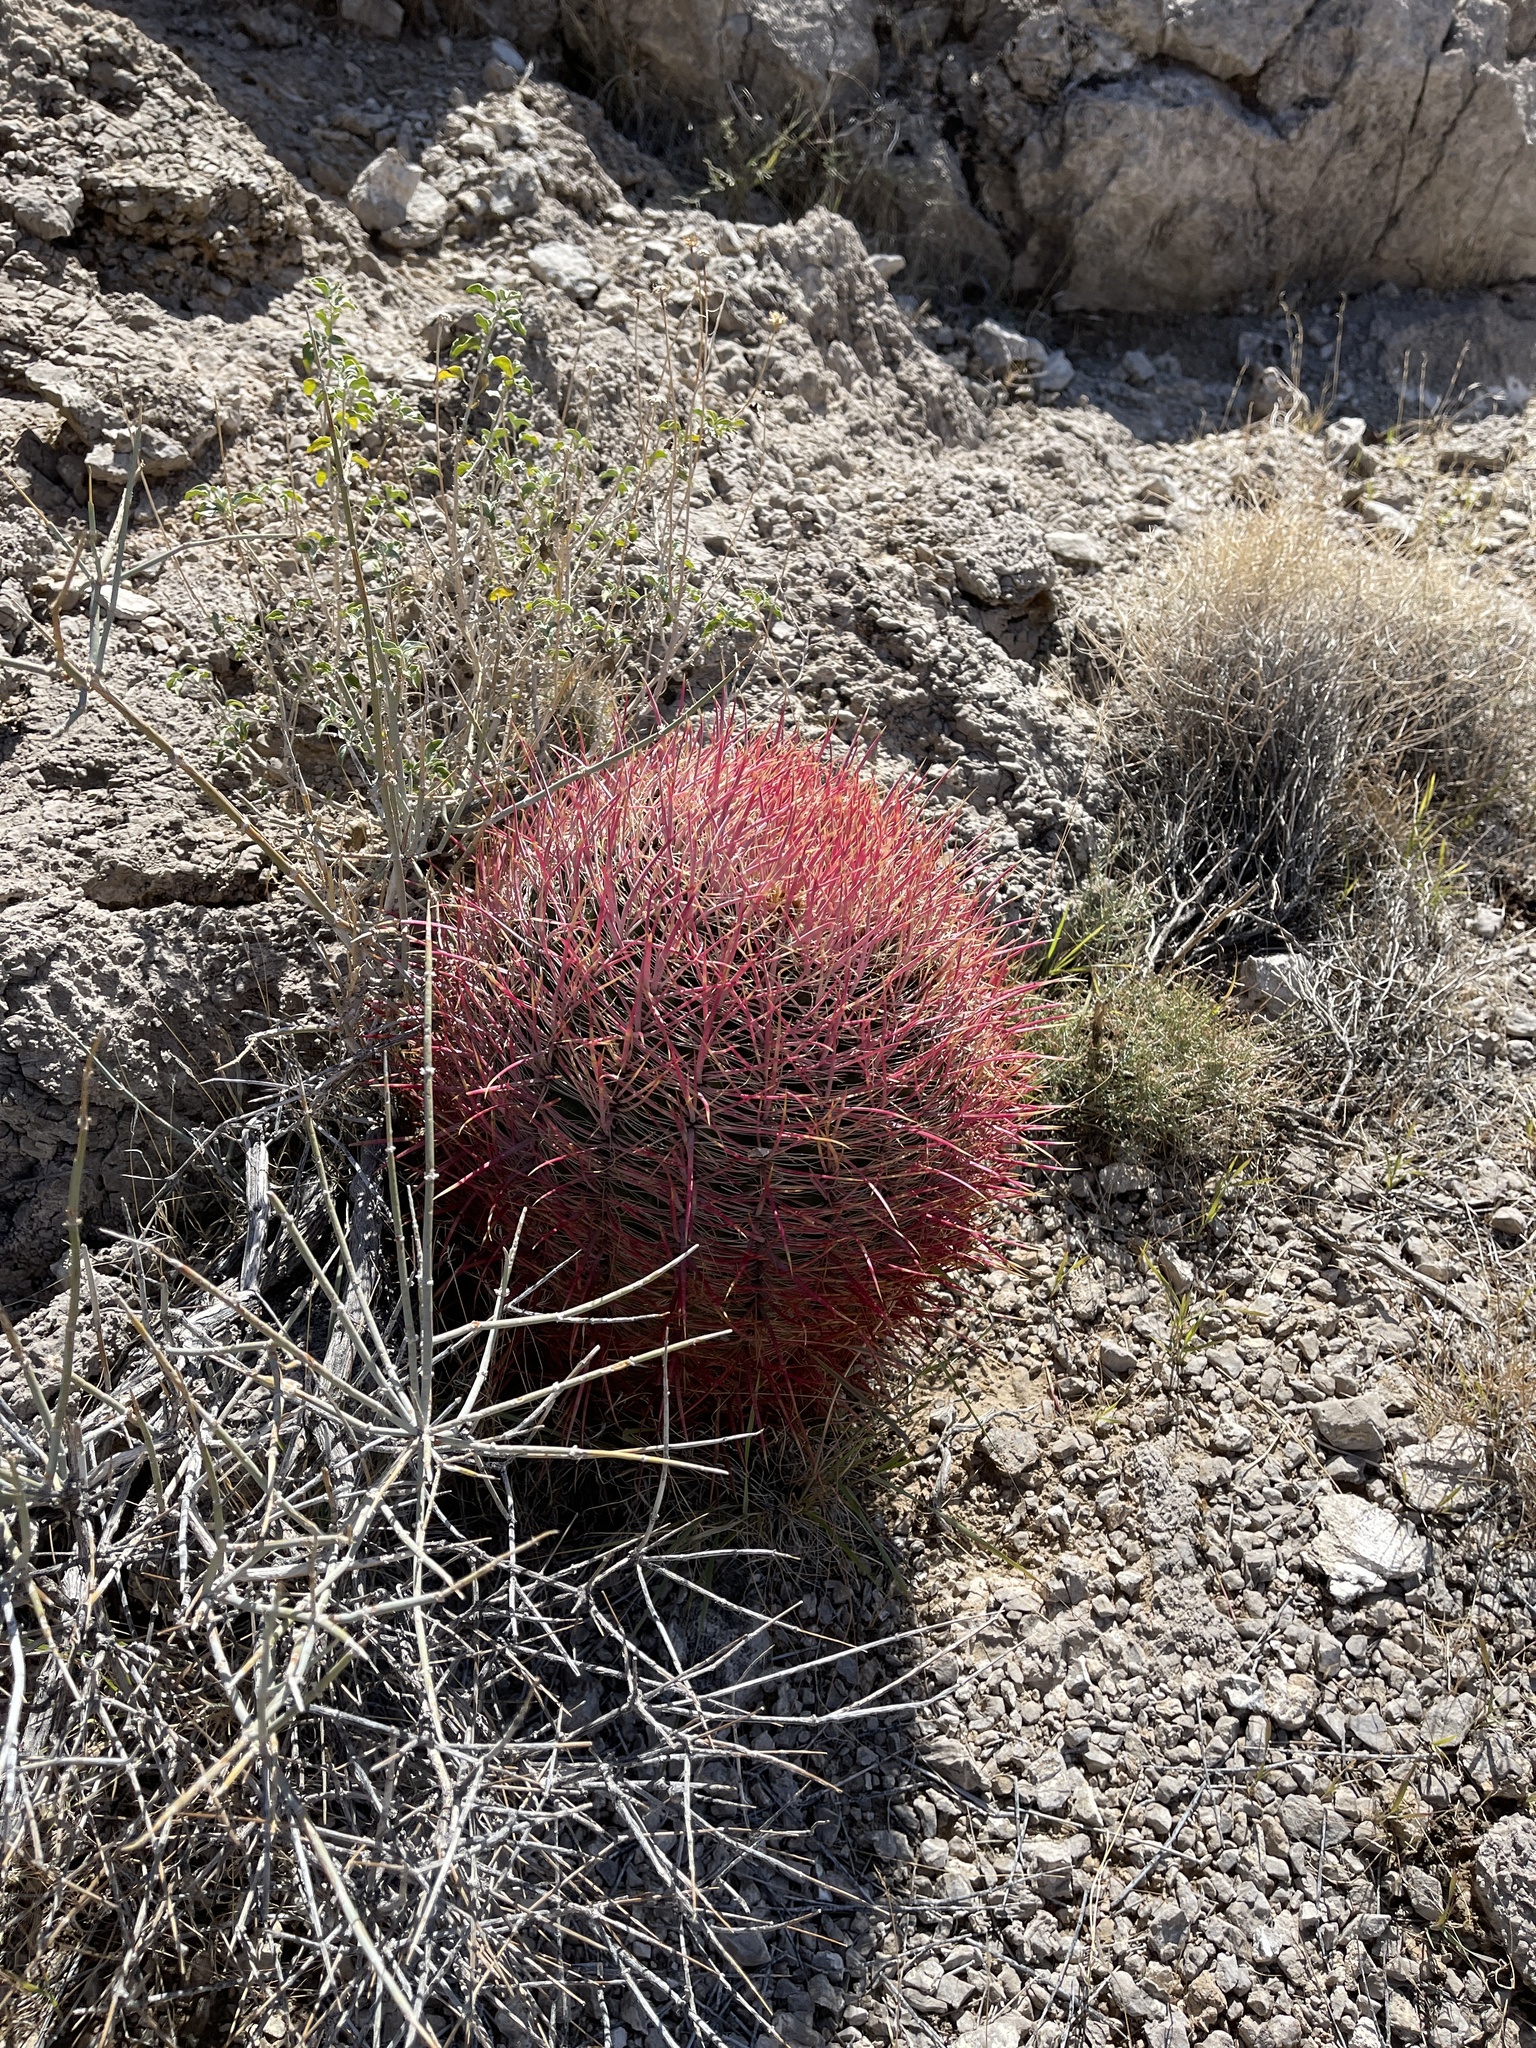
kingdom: Plantae
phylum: Tracheophyta
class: Magnoliopsida
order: Caryophyllales
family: Cactaceae
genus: Ferocactus
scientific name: Ferocactus cylindraceus
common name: California barrel cactus
